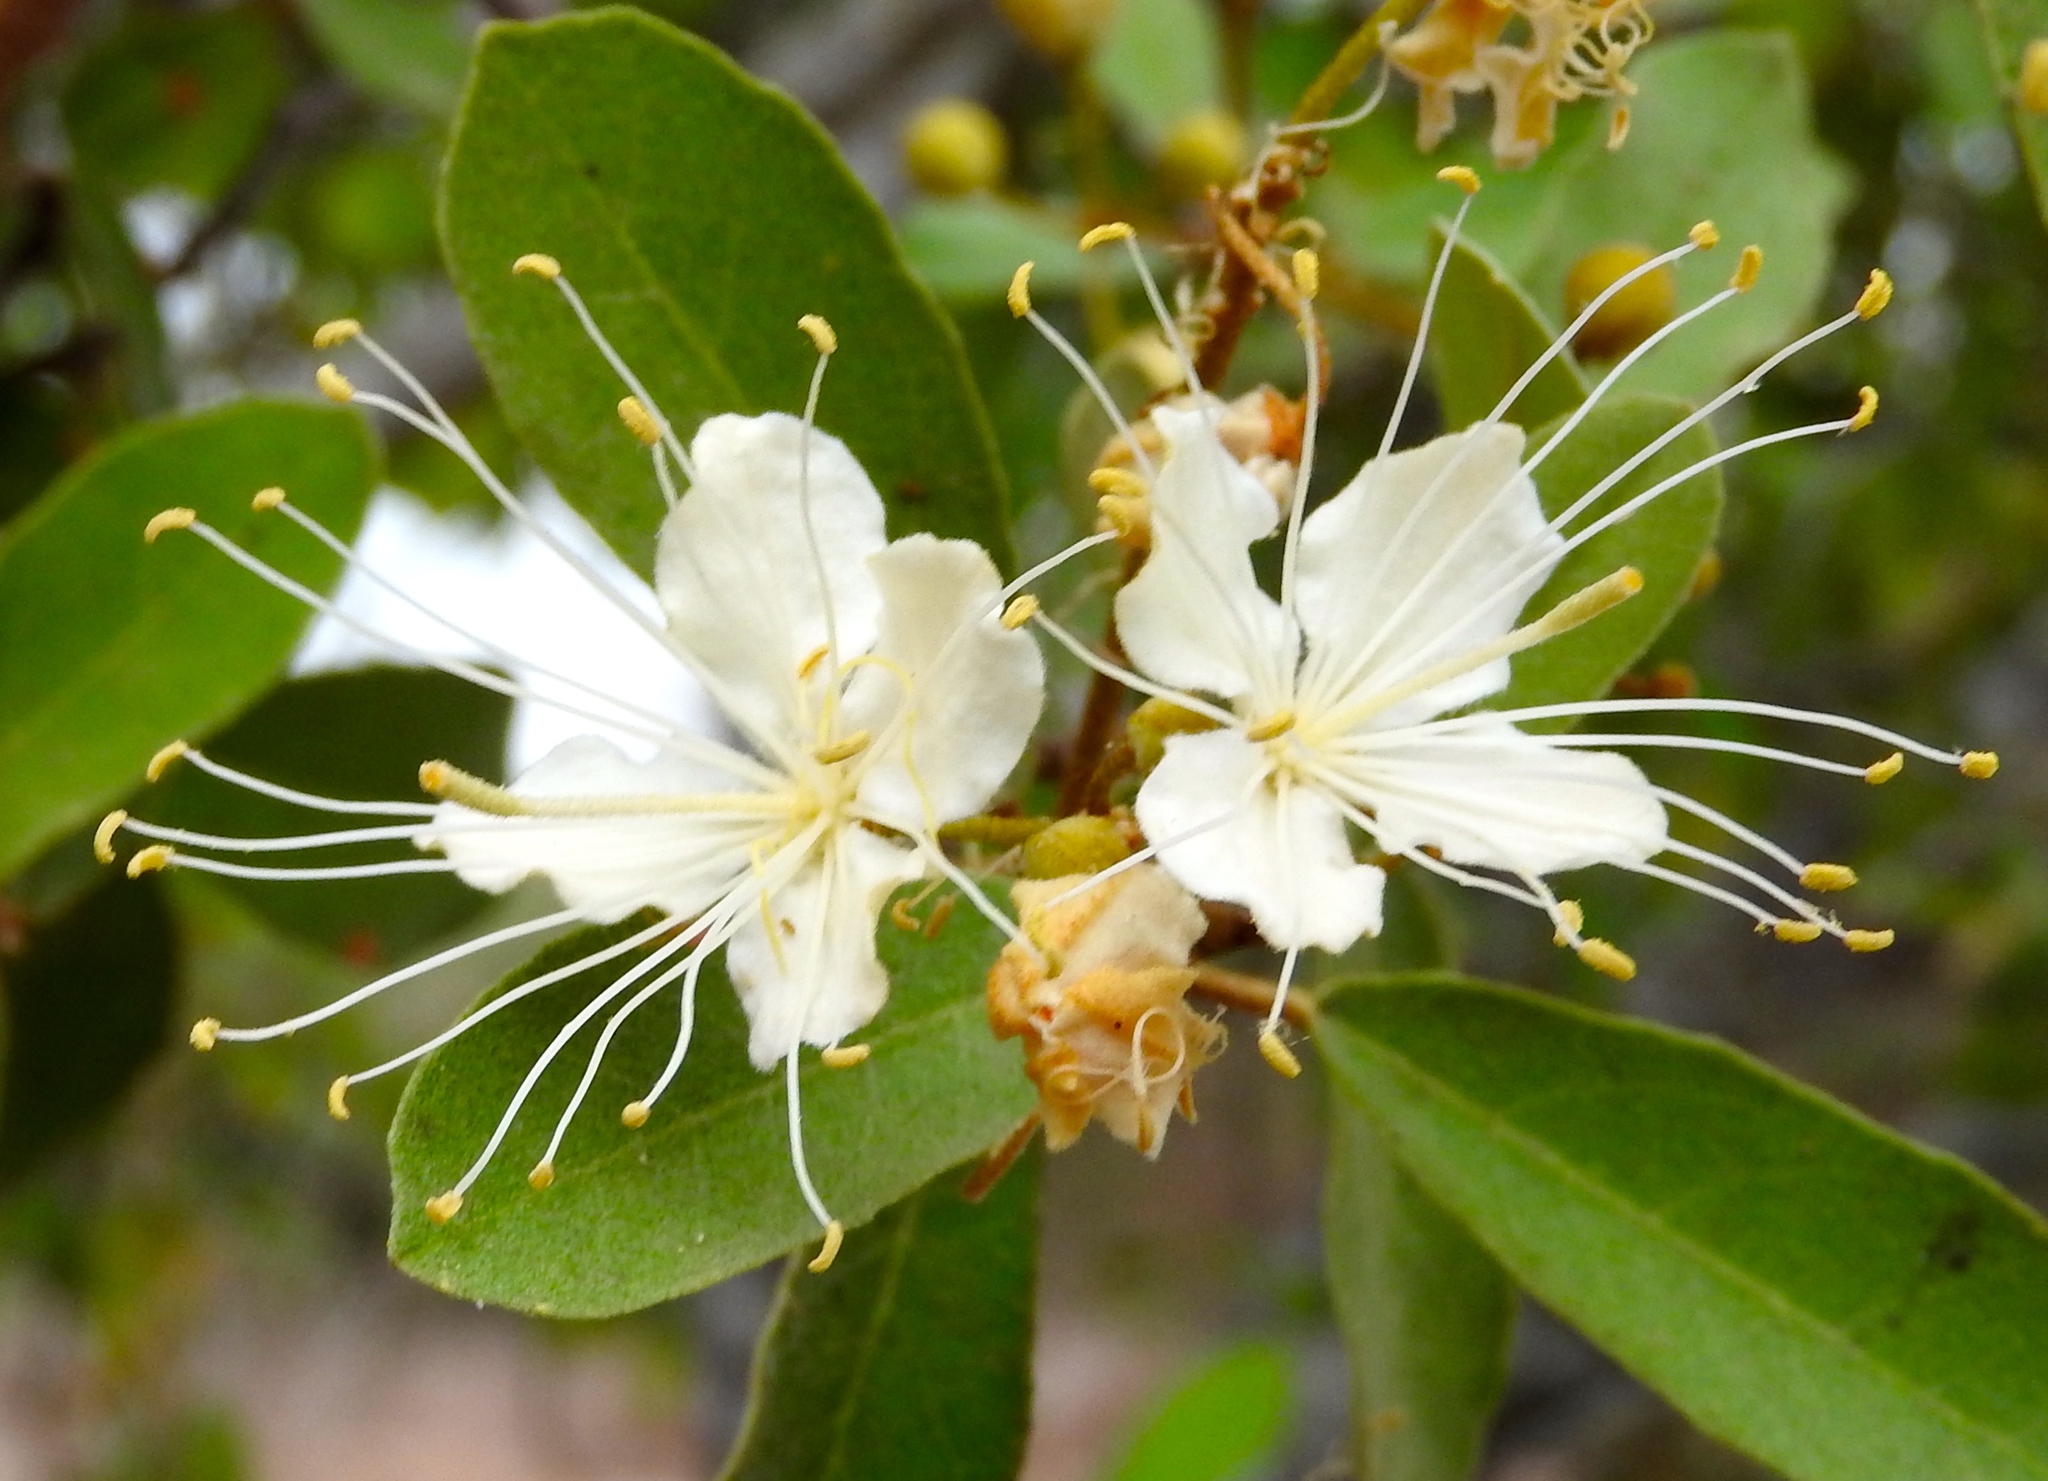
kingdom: Plantae
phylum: Tracheophyta
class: Magnoliopsida
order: Brassicales
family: Capparaceae
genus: Quadrella
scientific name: Quadrella indica
